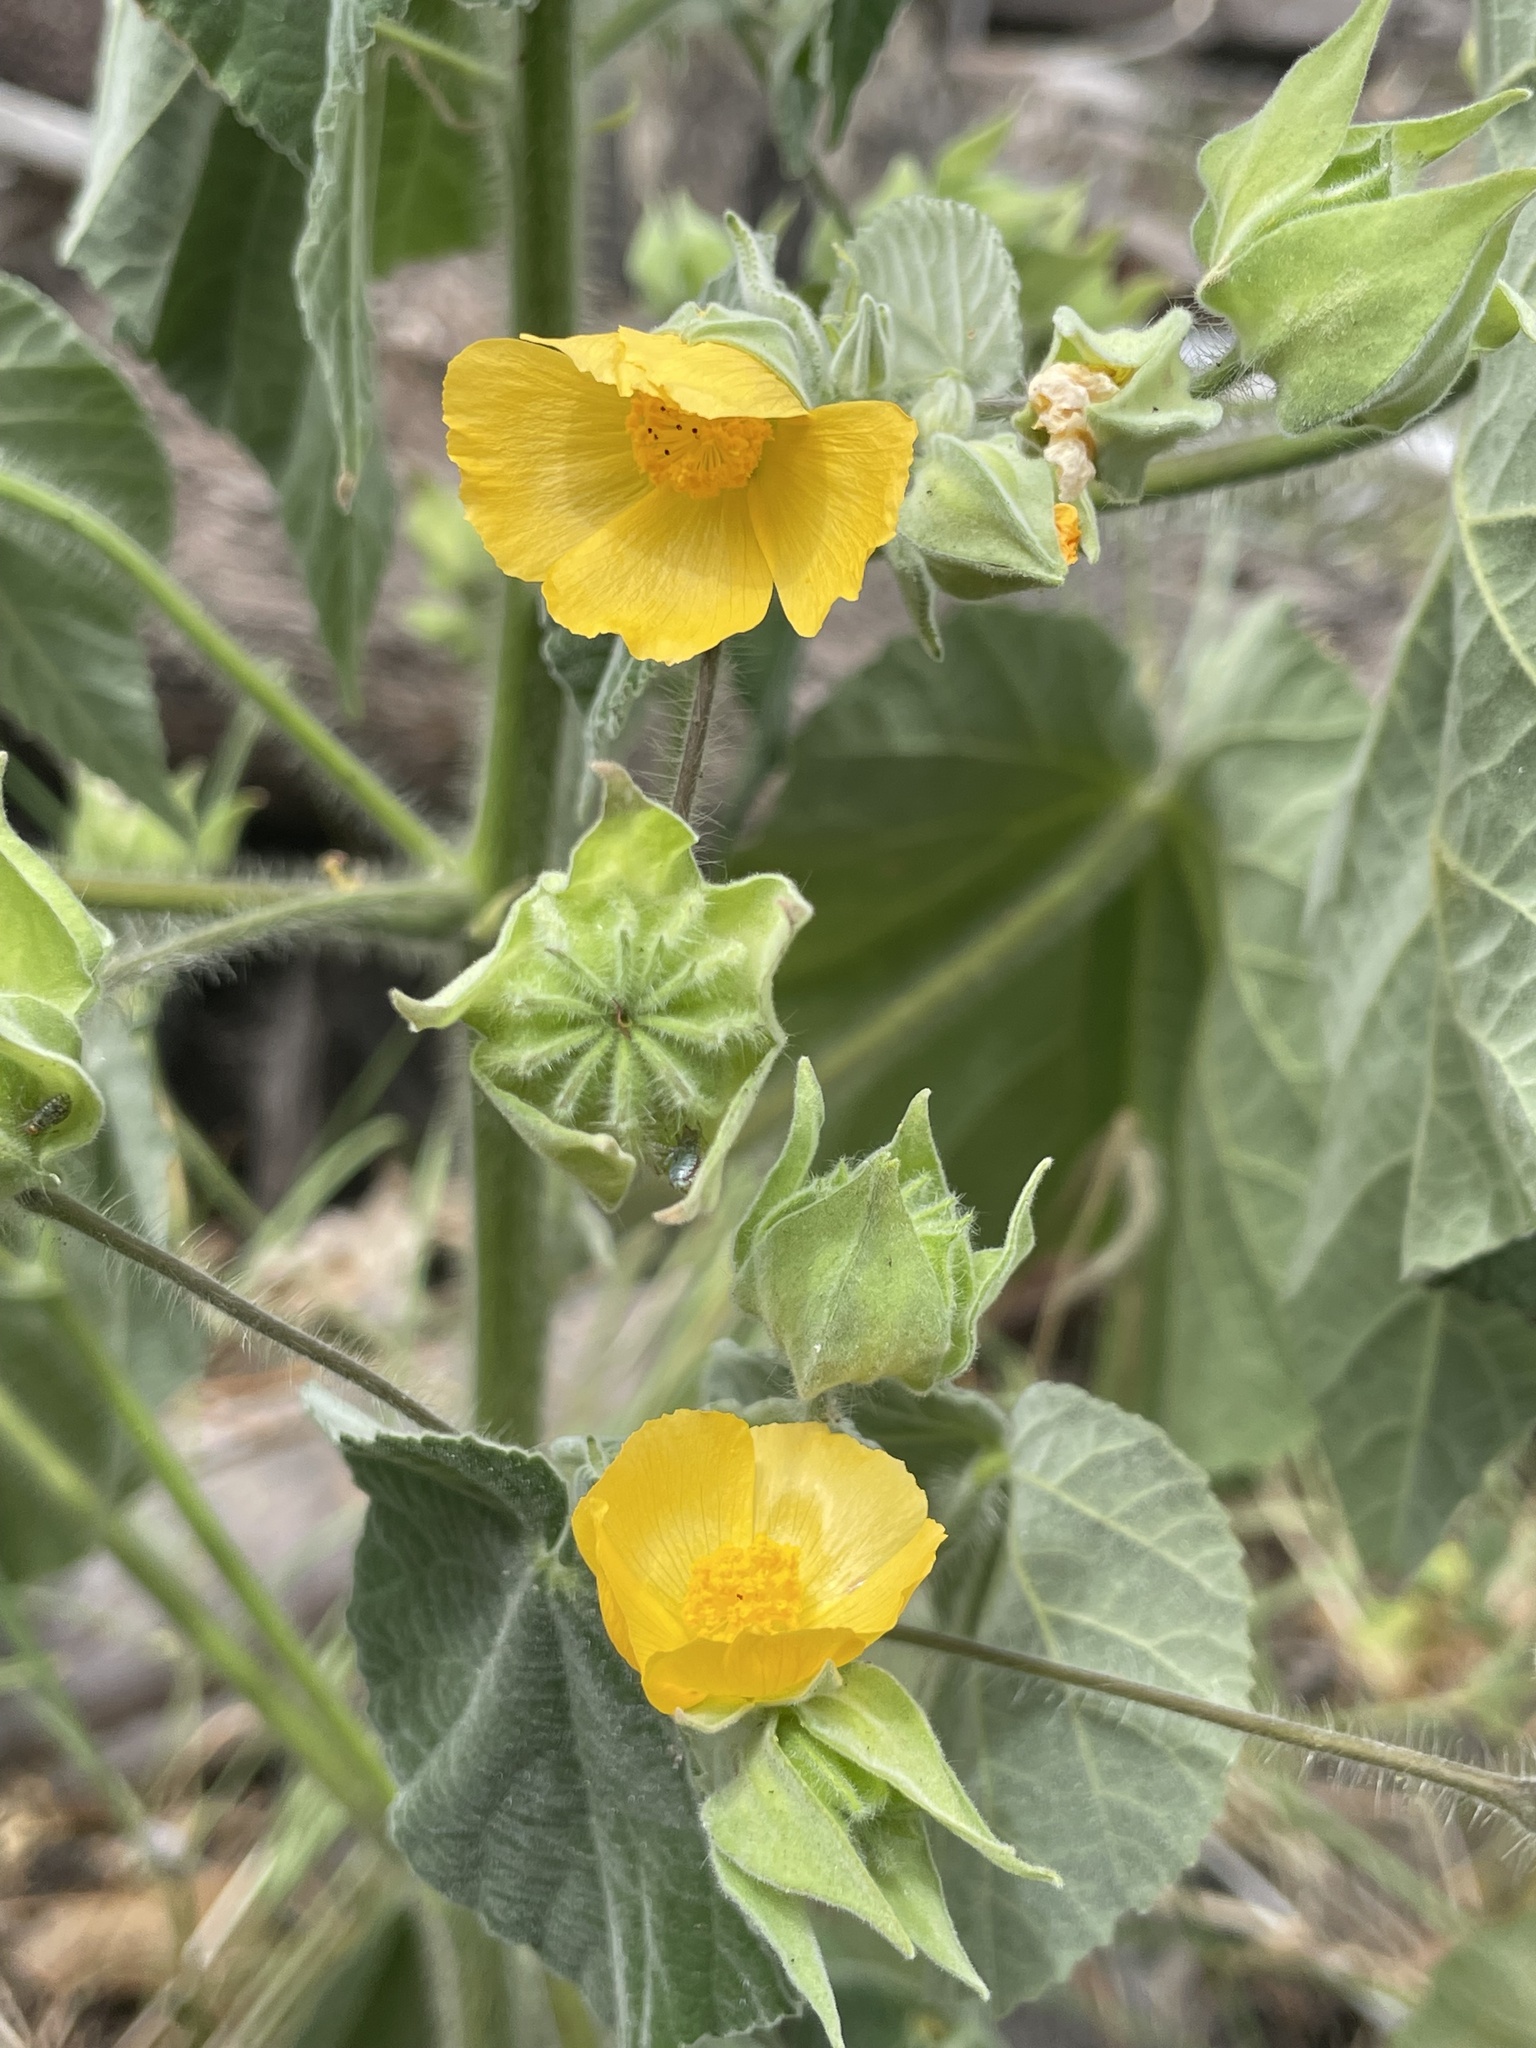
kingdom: Plantae
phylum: Tracheophyta
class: Magnoliopsida
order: Malvales
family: Malvaceae
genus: Abutilon
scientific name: Abutilon grandifolium
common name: Hairy abutilon
